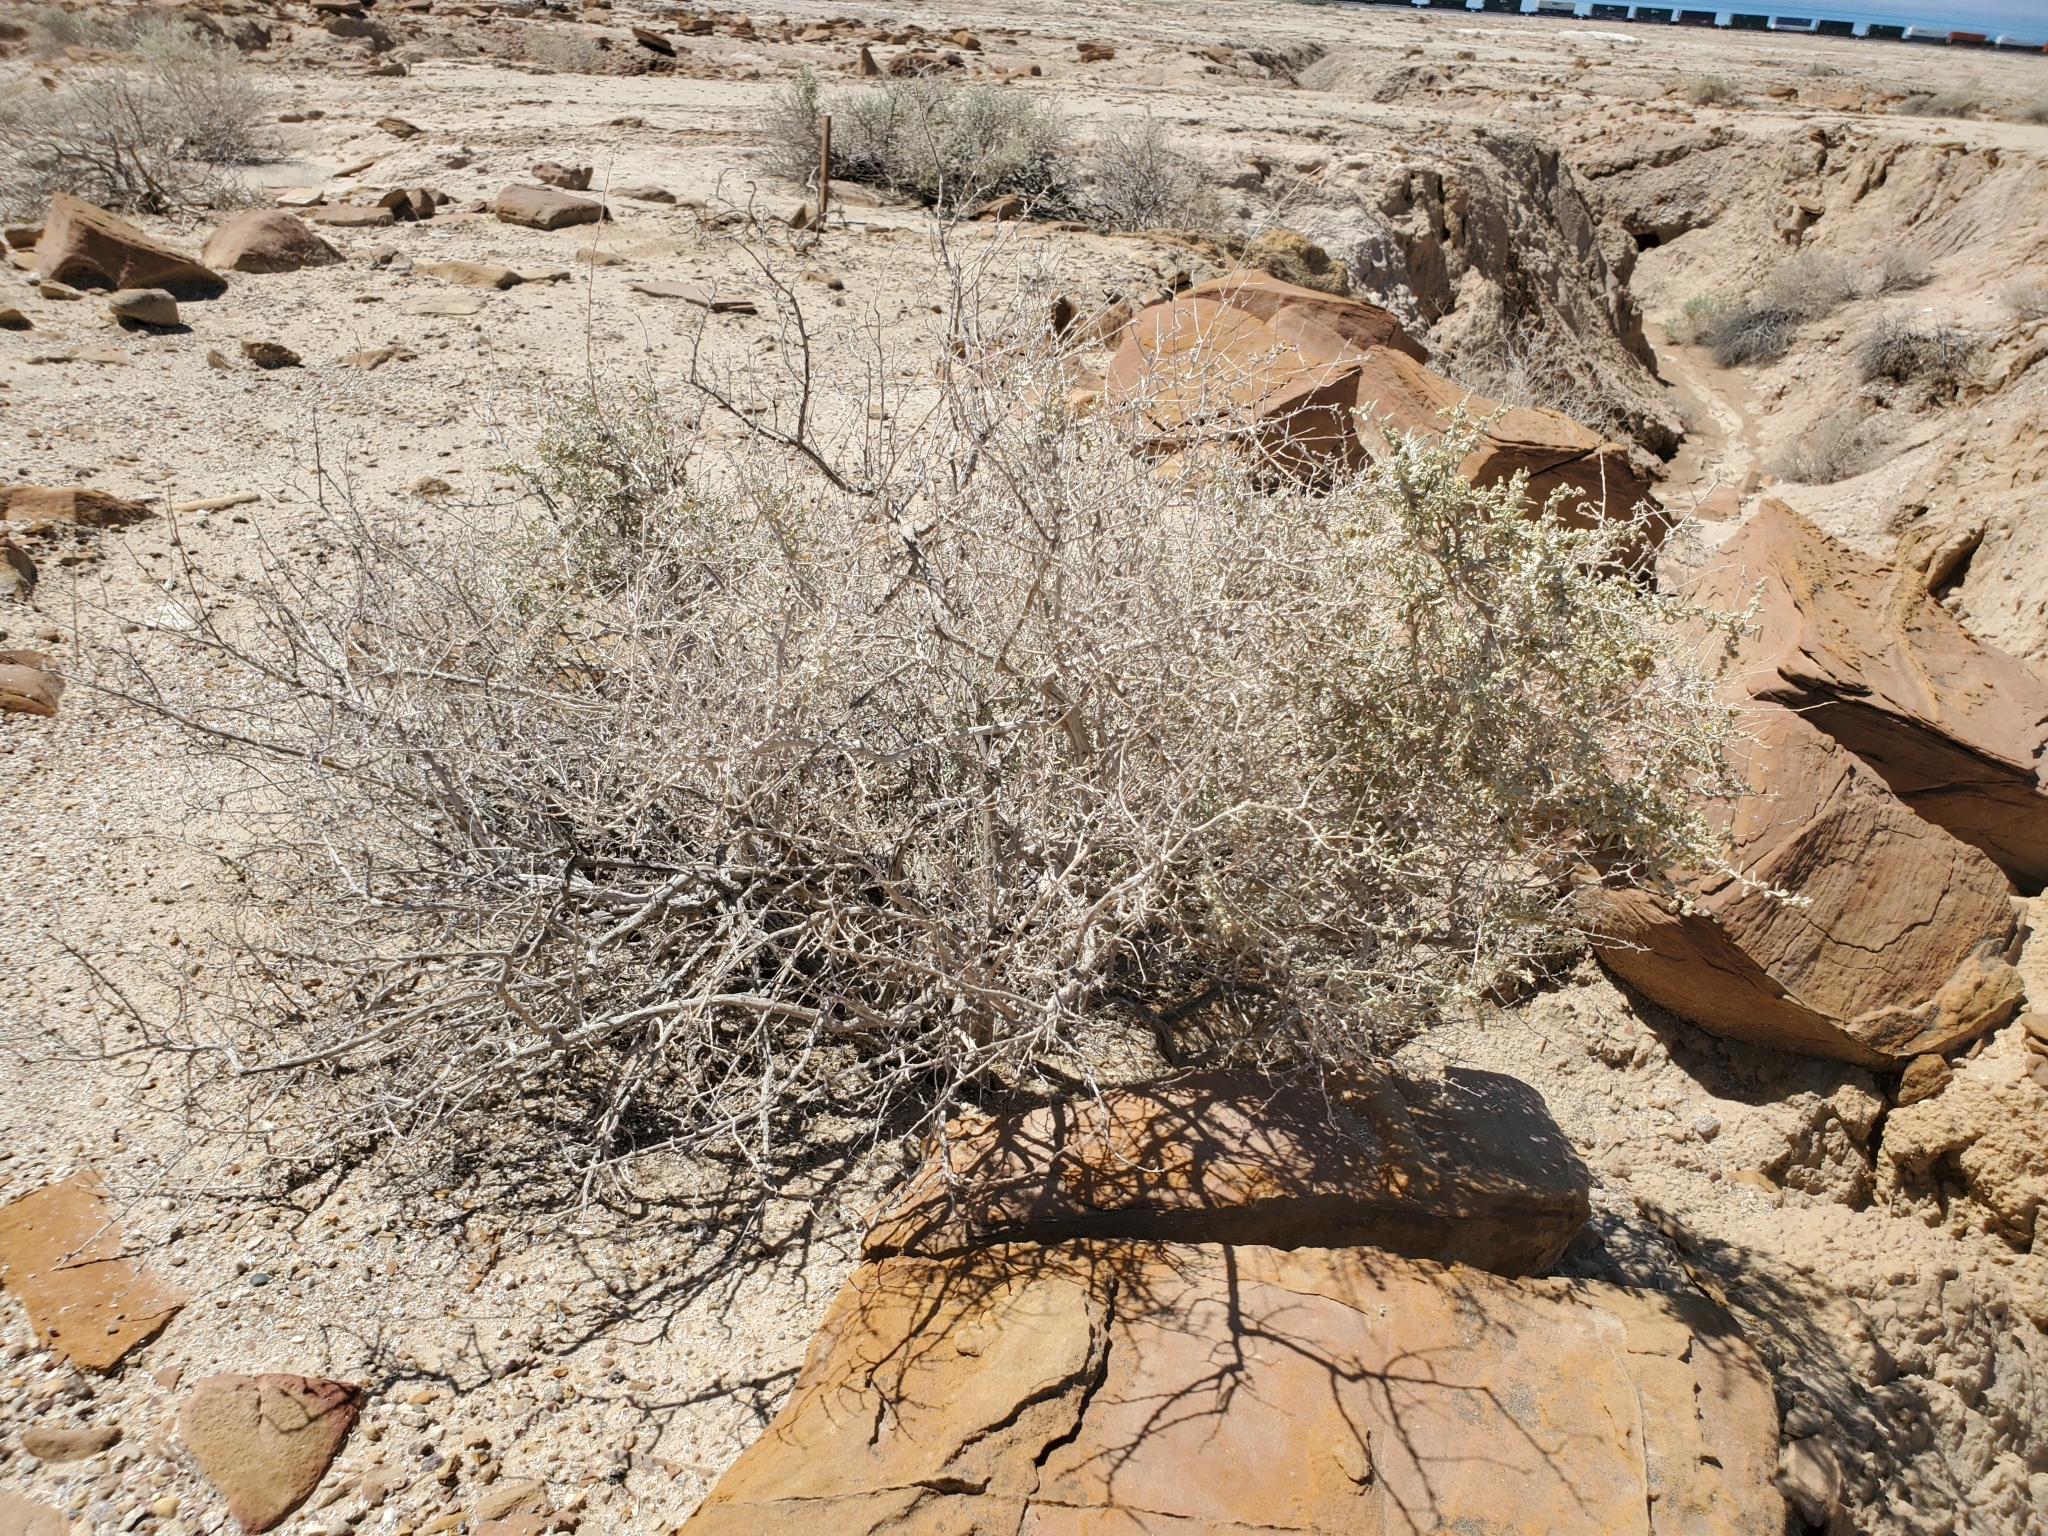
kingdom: Plantae
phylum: Tracheophyta
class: Magnoliopsida
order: Caryophyllales
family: Amaranthaceae
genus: Atriplex
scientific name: Atriplex polycarpa
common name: Desert saltbush
